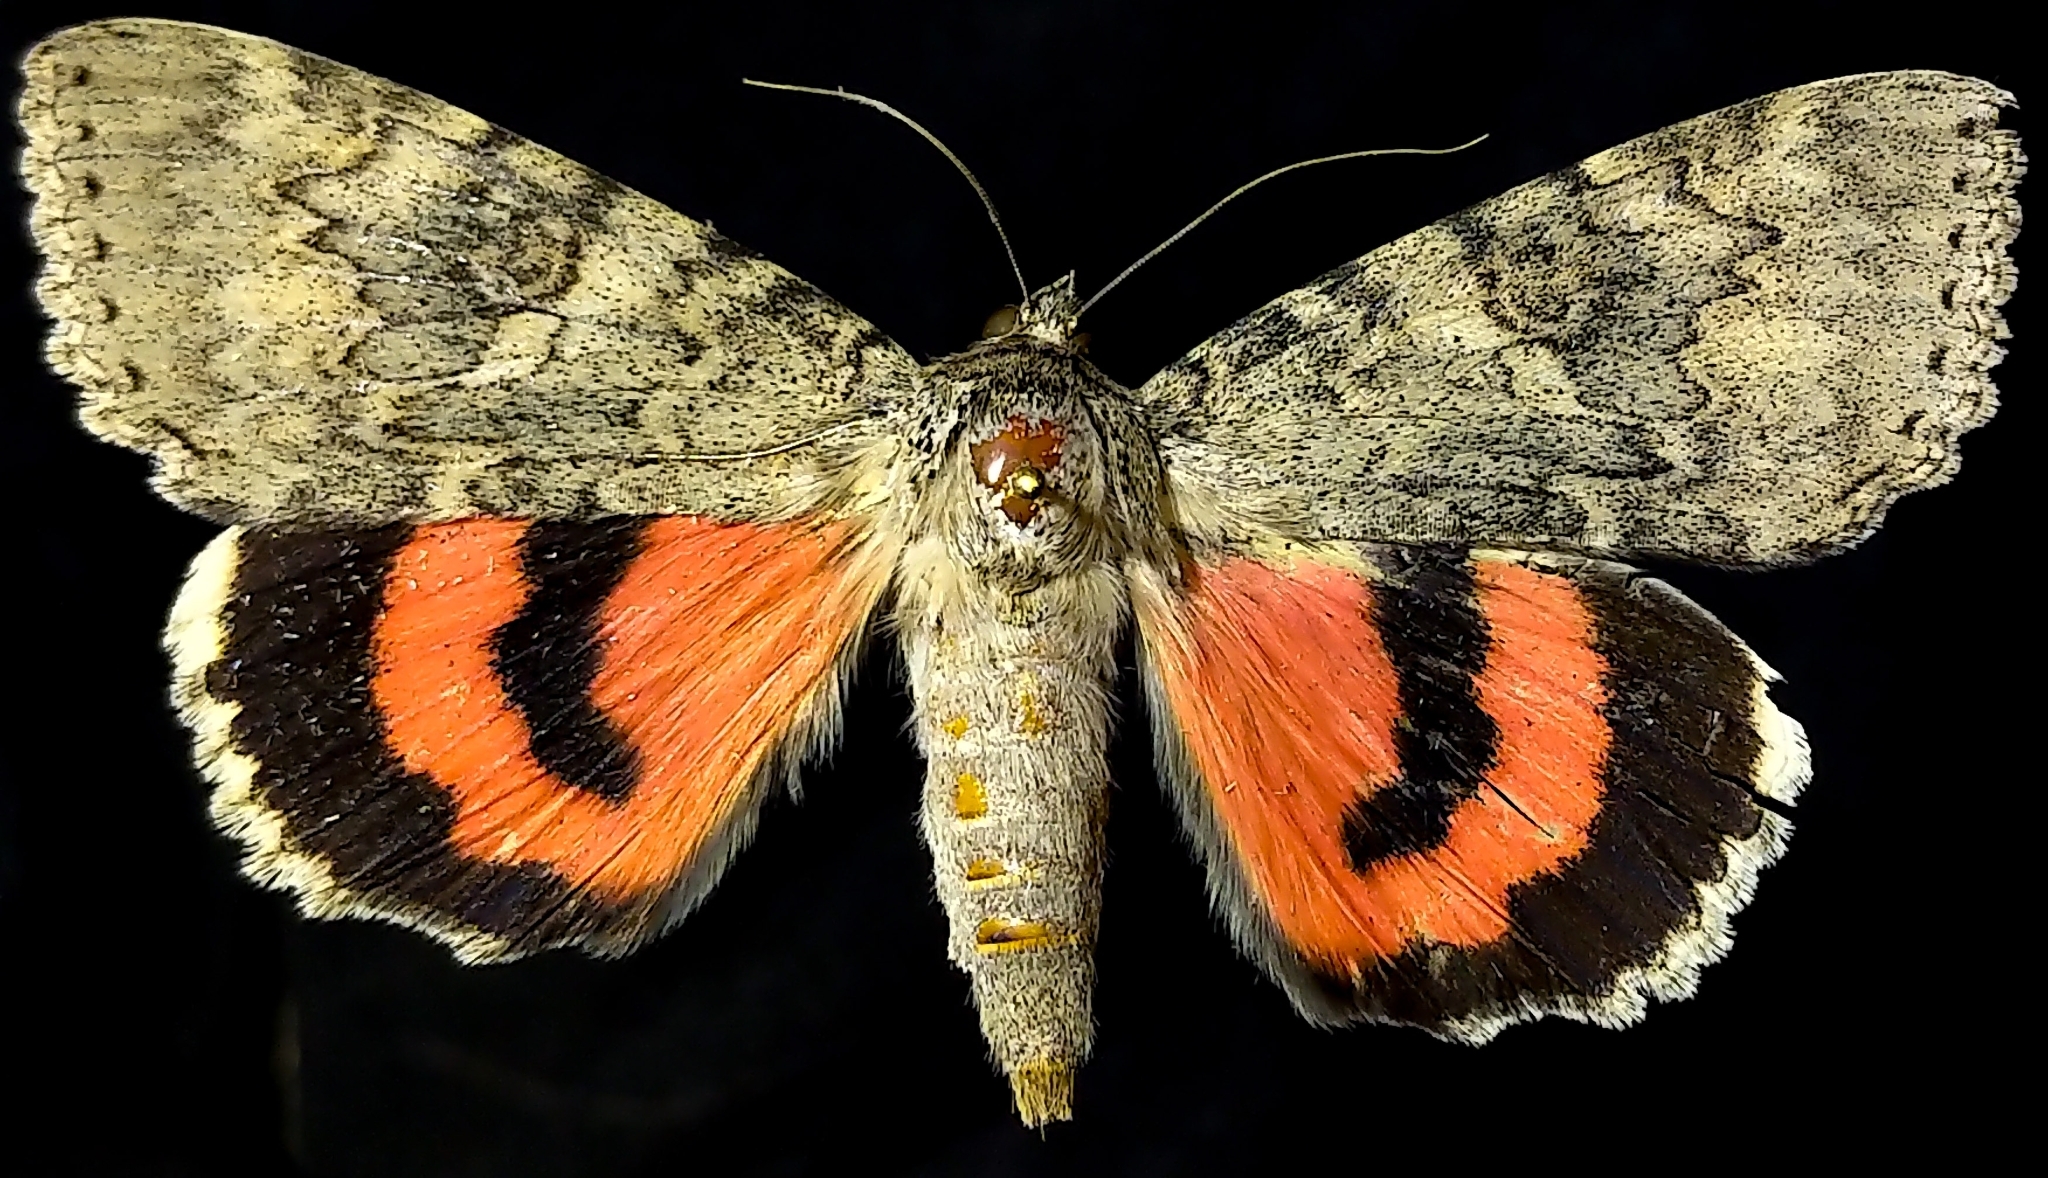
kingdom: Animalia
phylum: Arthropoda
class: Insecta
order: Lepidoptera
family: Erebidae
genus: Catocala
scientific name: Catocala californica
